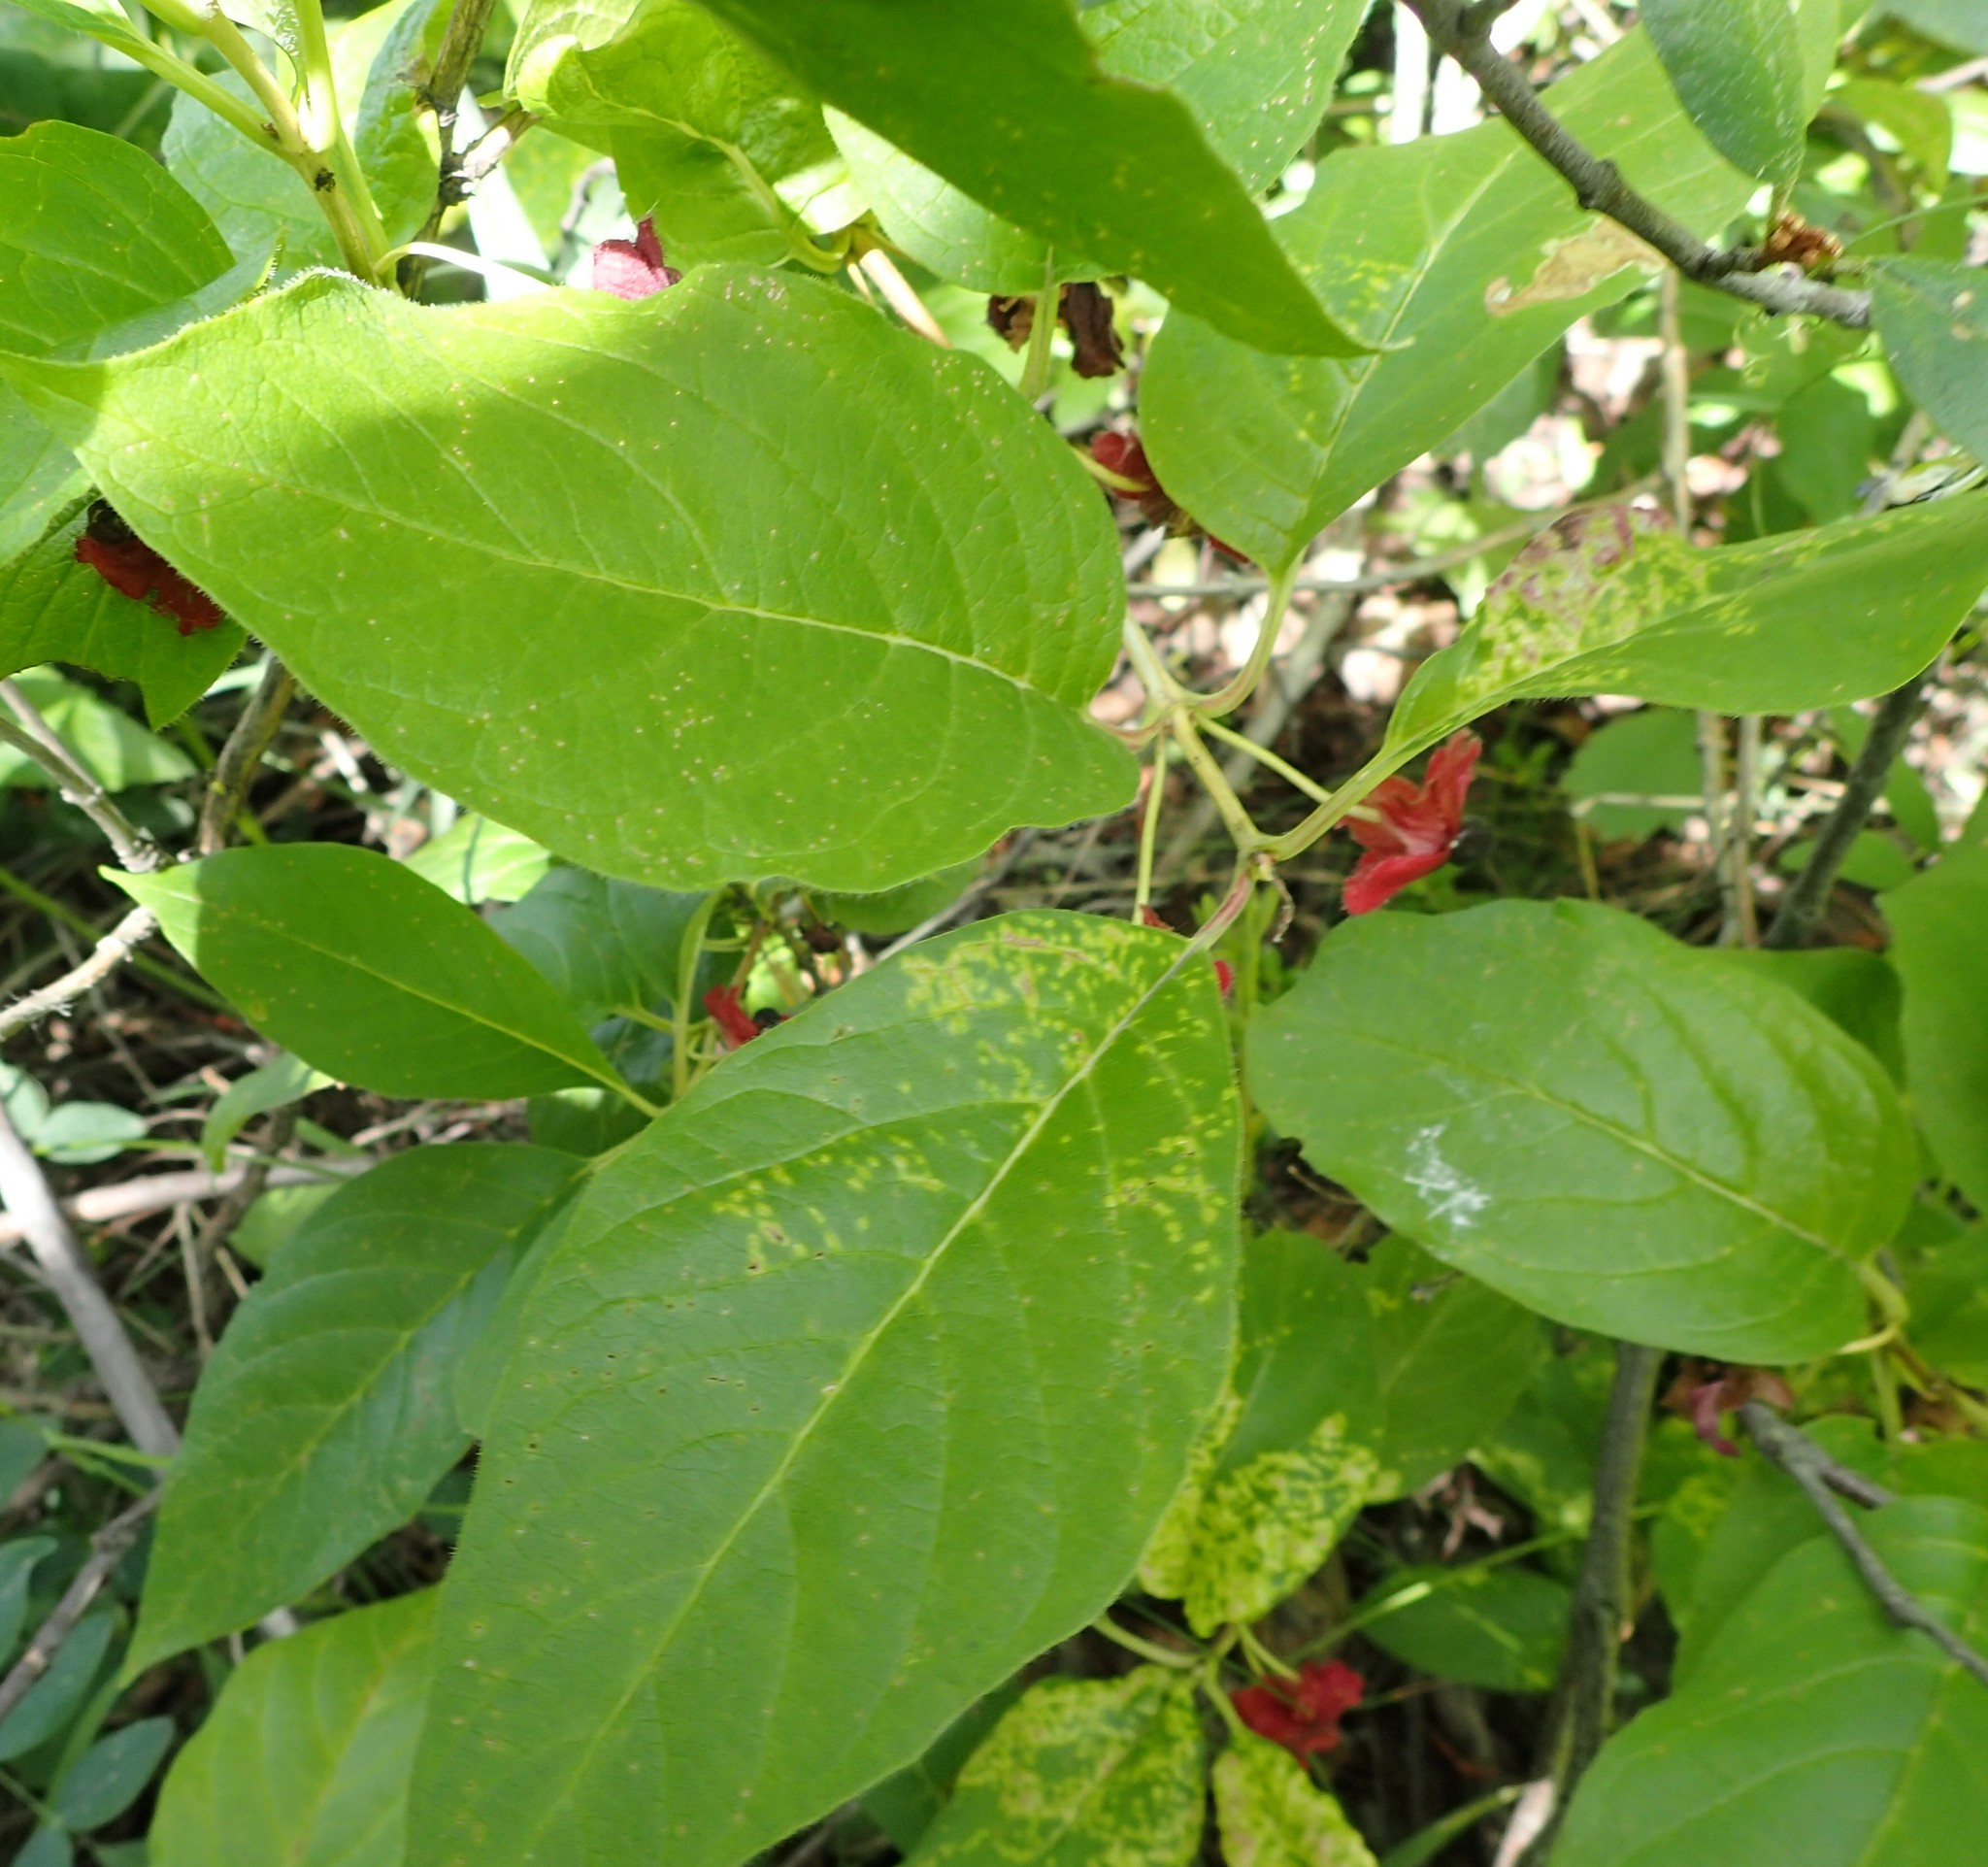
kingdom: Plantae
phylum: Tracheophyta
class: Magnoliopsida
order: Dipsacales
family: Caprifoliaceae
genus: Lonicera
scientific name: Lonicera involucrata
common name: Californian honeysuckle
